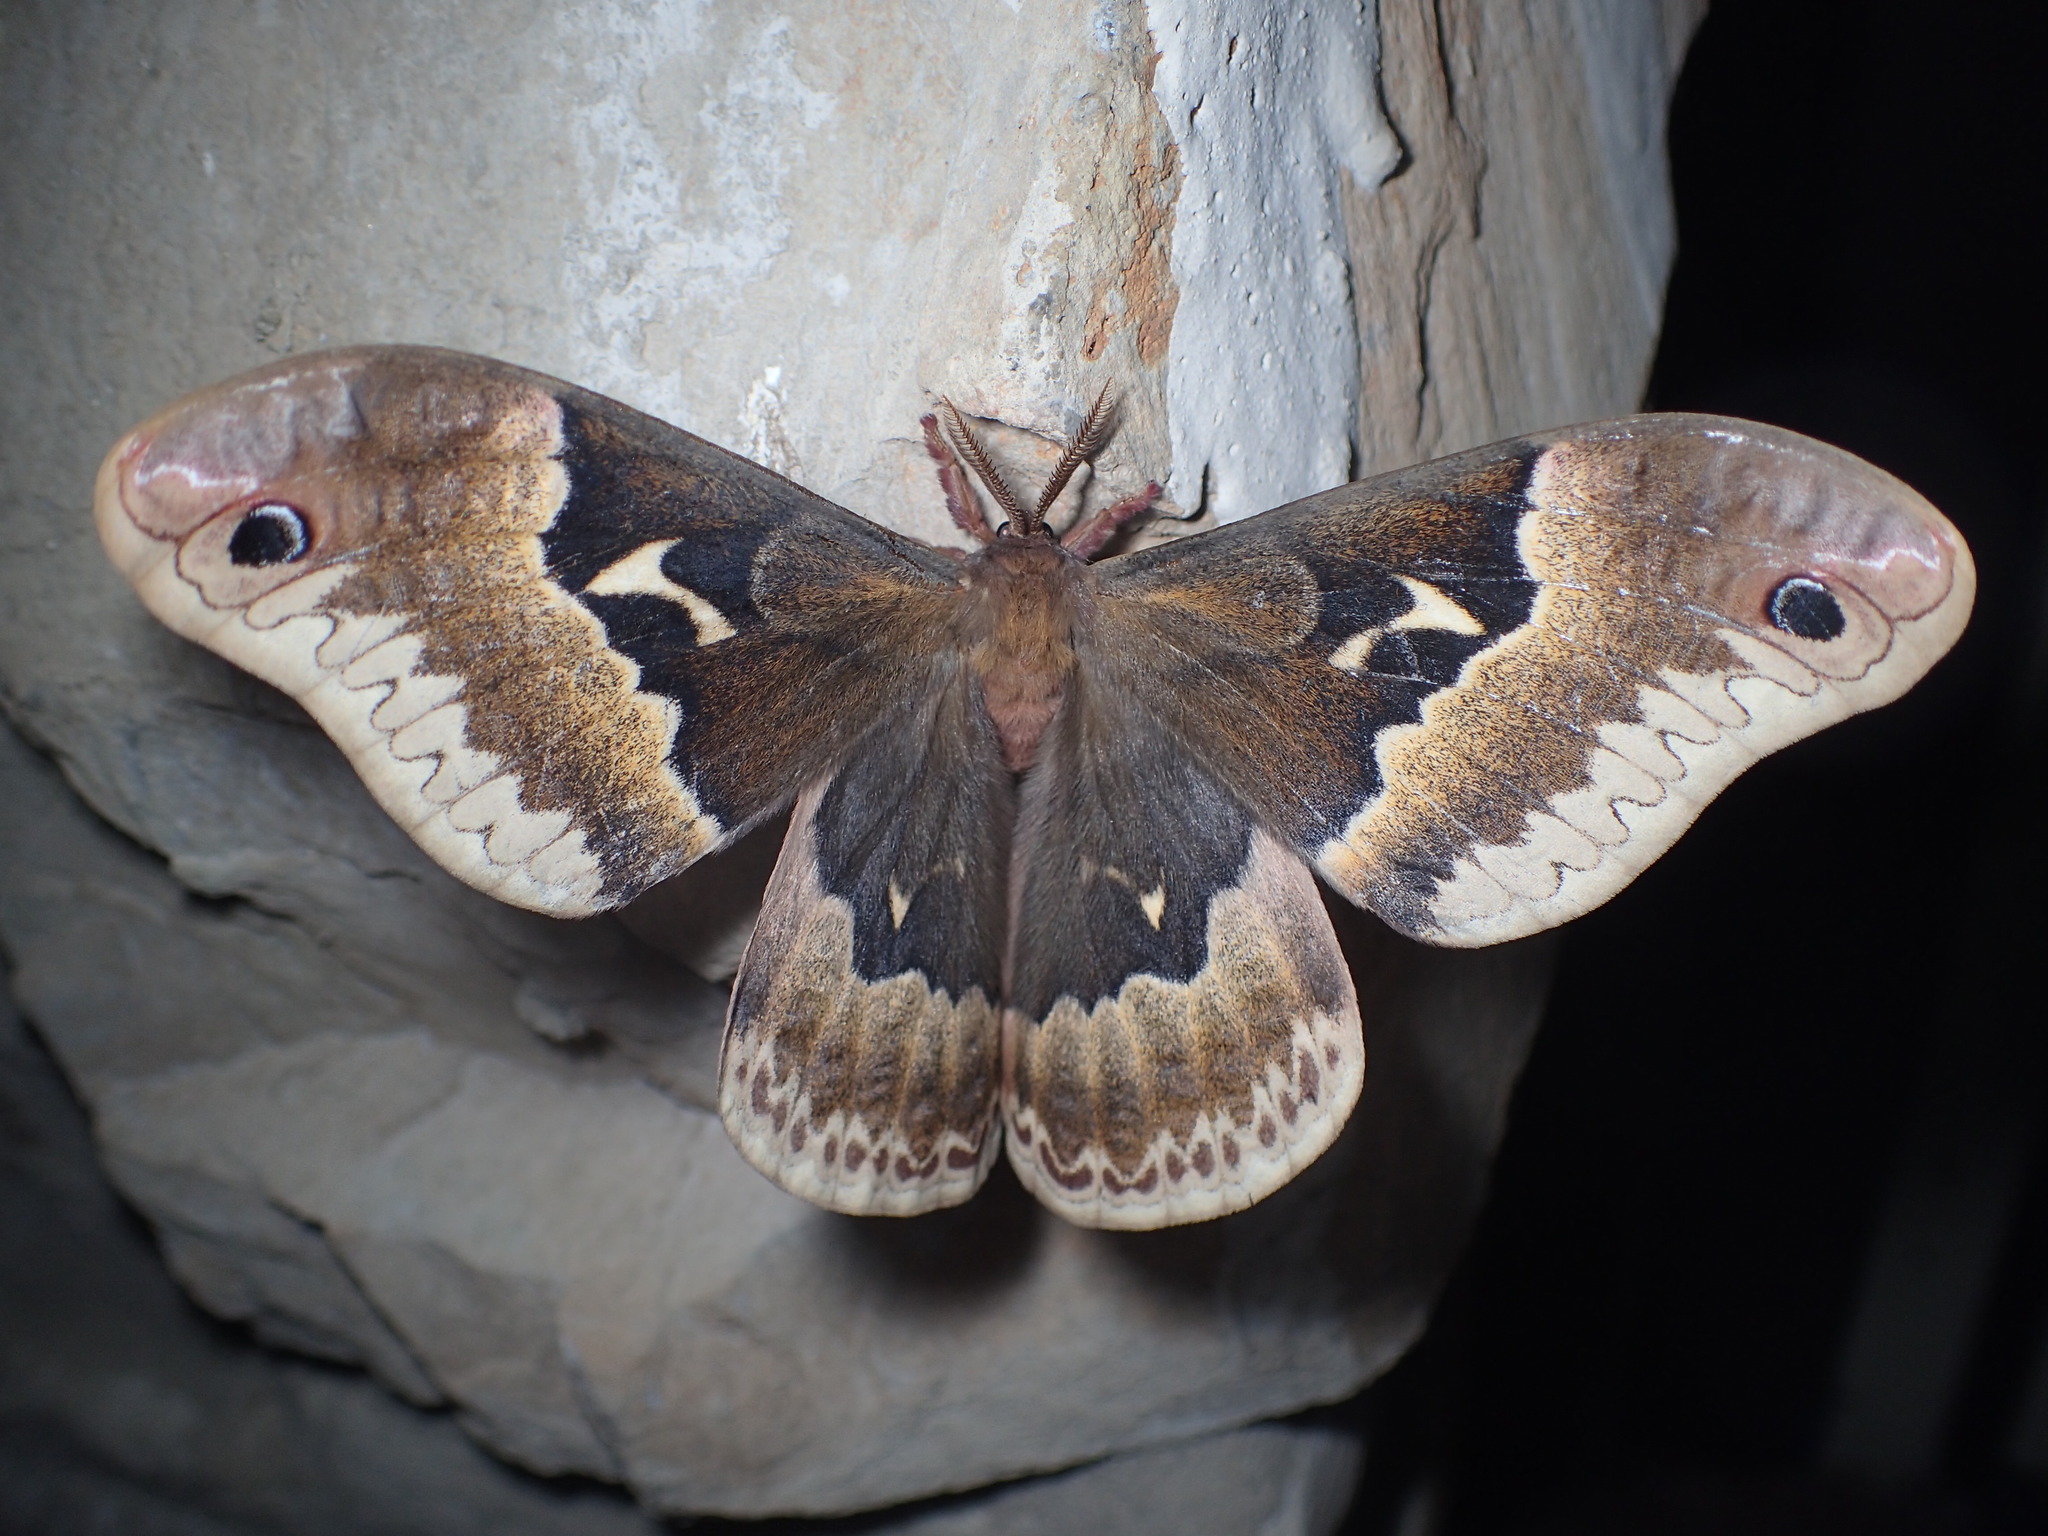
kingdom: Animalia
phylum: Arthropoda
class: Insecta
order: Lepidoptera
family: Saturniidae
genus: Callosamia
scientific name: Callosamia angulifera
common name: Tulip tree silkmoth
